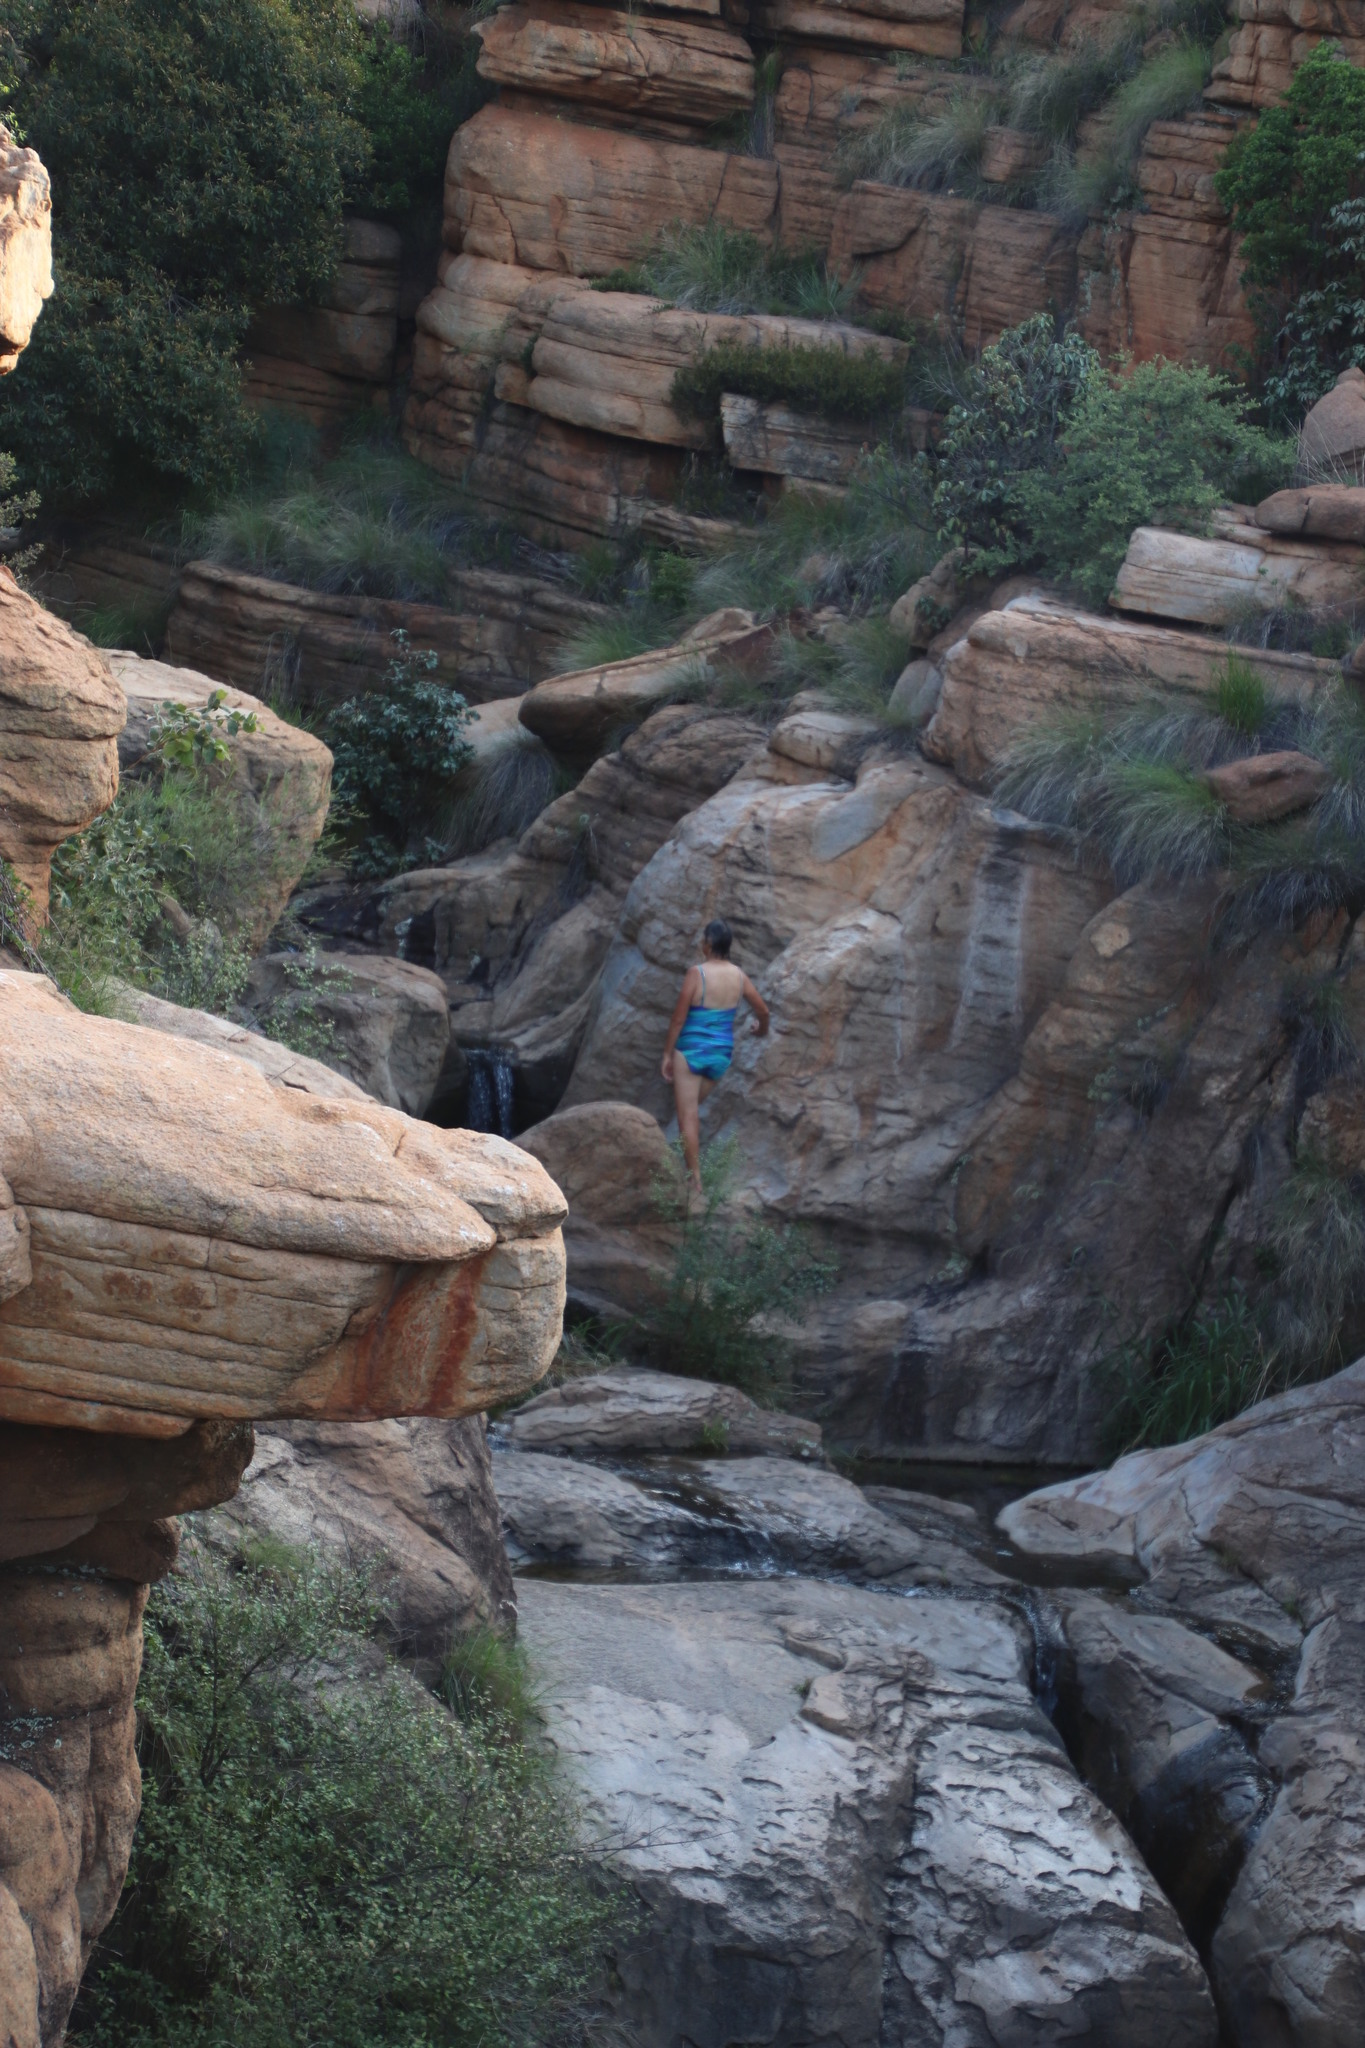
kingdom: Plantae
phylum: Tracheophyta
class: Magnoliopsida
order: Rosales
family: Rhamnaceae
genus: Phylica
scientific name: Phylica paniculata
